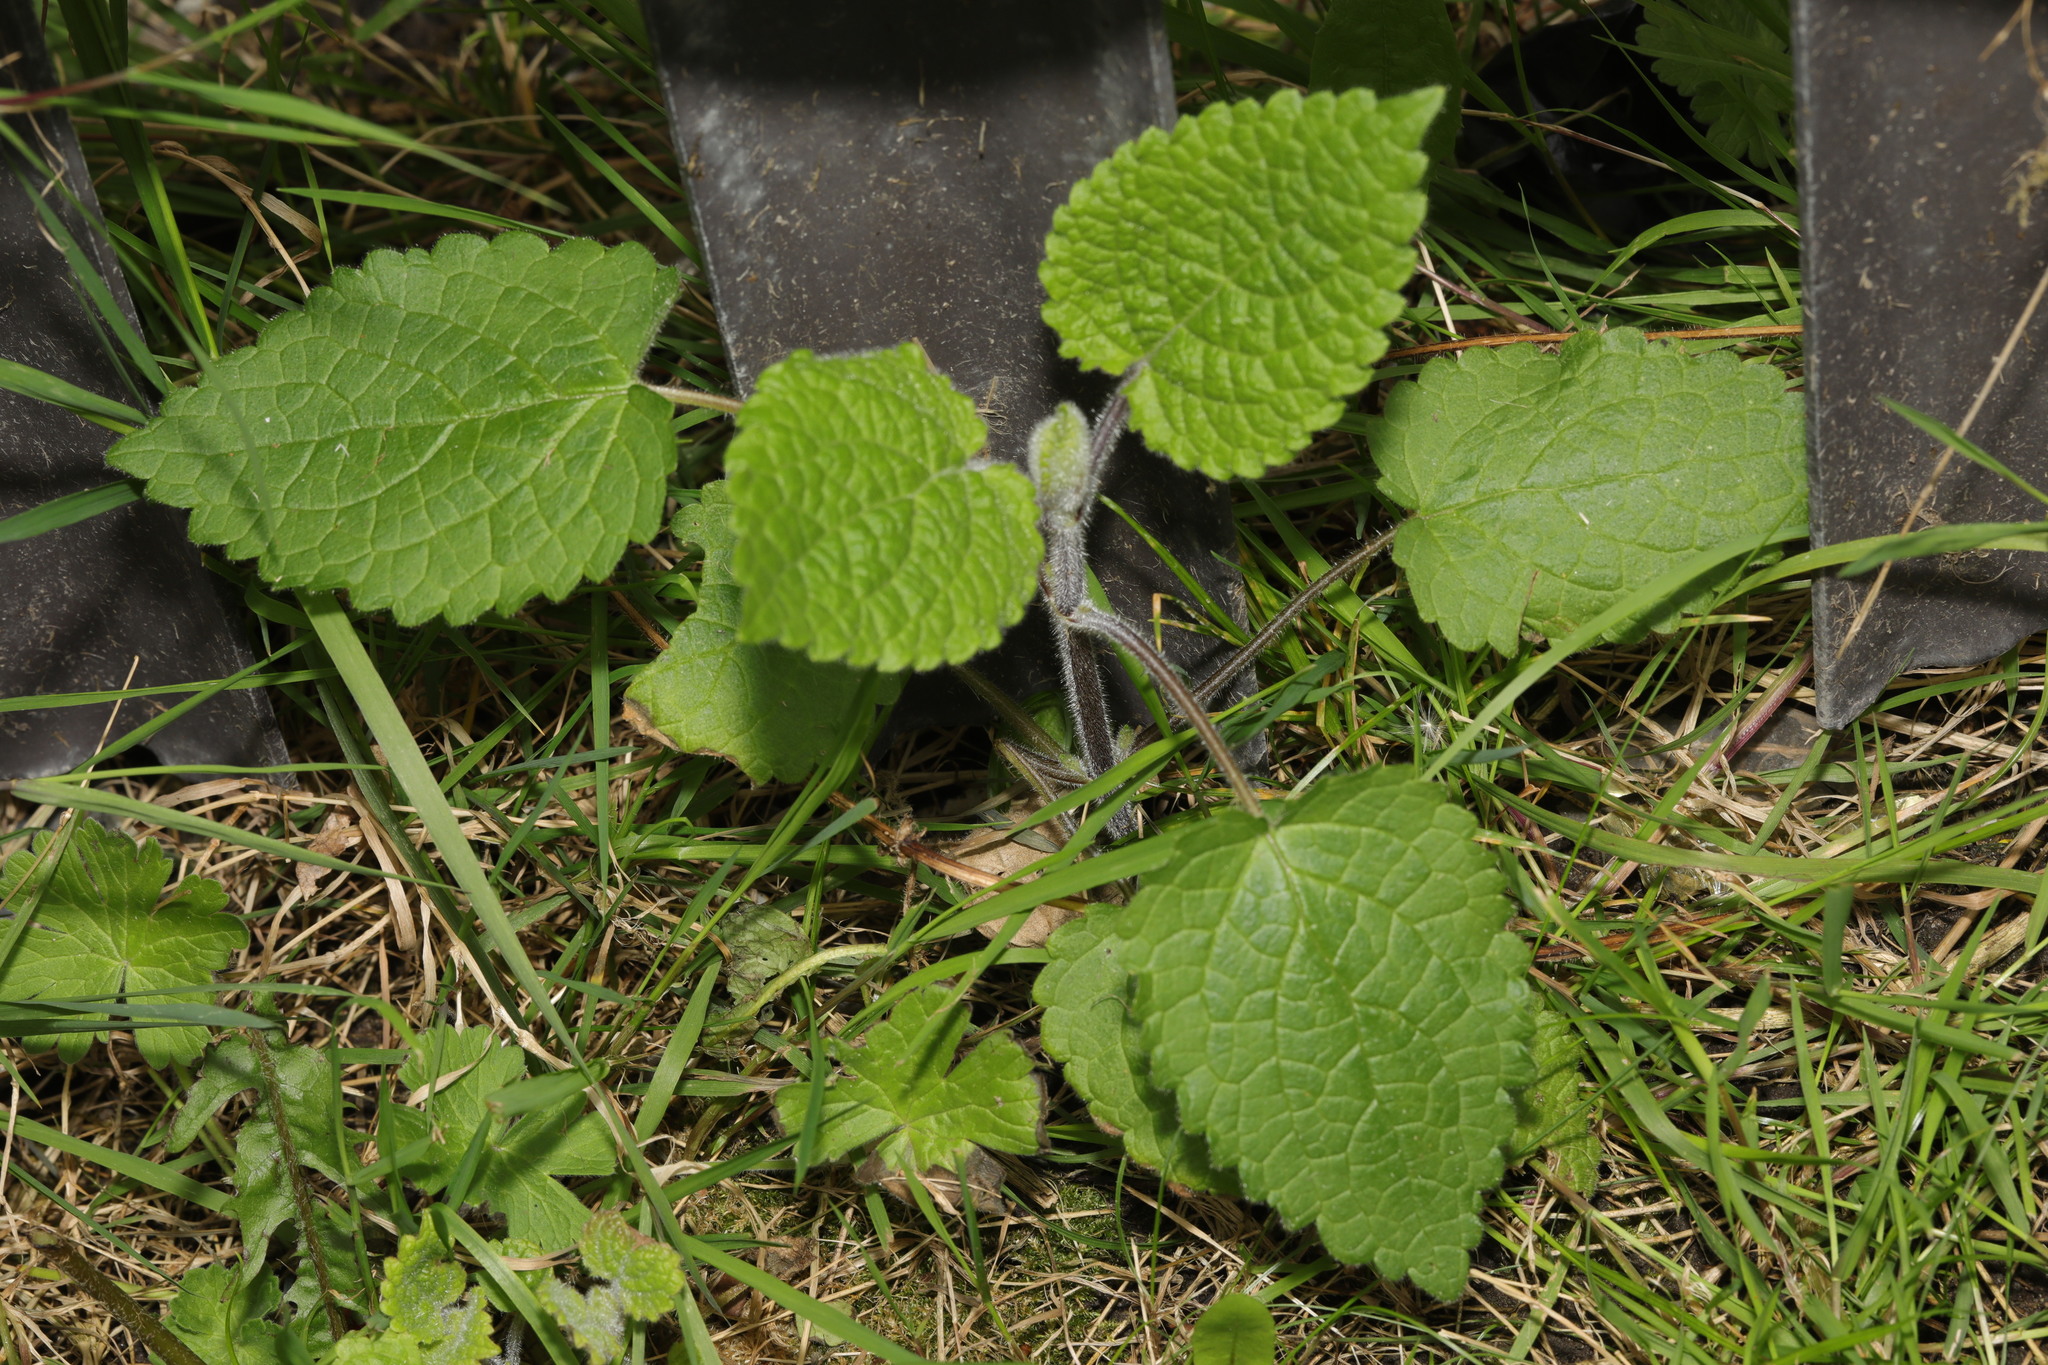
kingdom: Plantae
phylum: Tracheophyta
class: Magnoliopsida
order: Lamiales
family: Lamiaceae
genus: Stachys
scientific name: Stachys sylvatica
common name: Hedge woundwort
